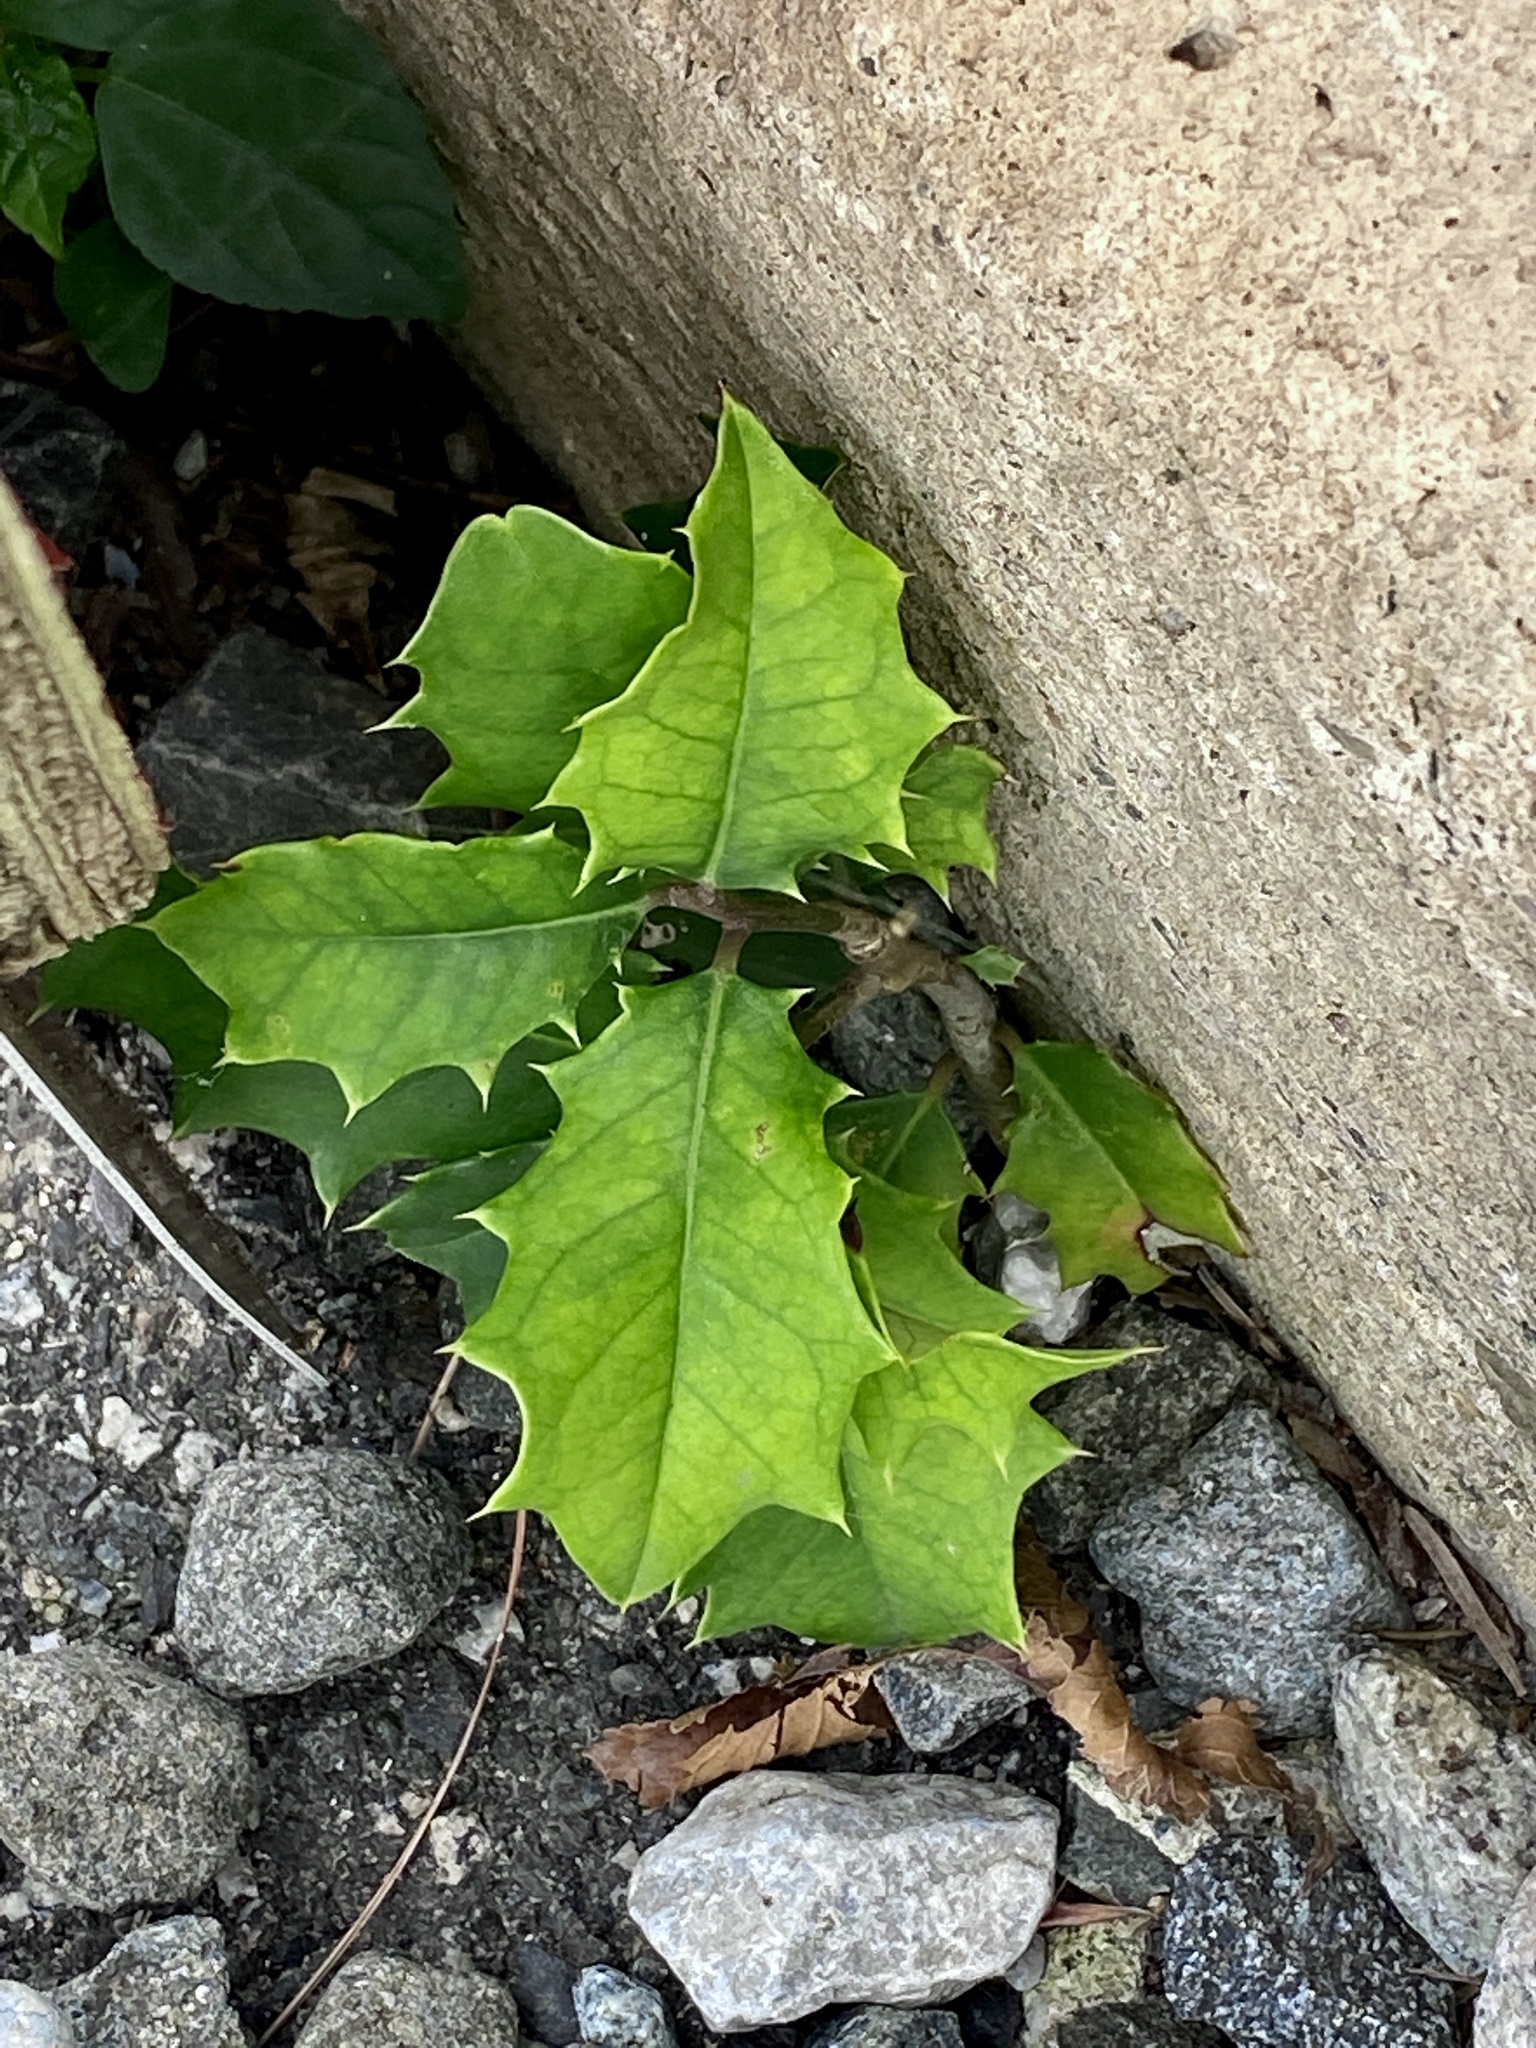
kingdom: Plantae
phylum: Tracheophyta
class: Magnoliopsida
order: Aquifoliales
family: Aquifoliaceae
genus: Ilex
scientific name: Ilex opaca
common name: American holly
